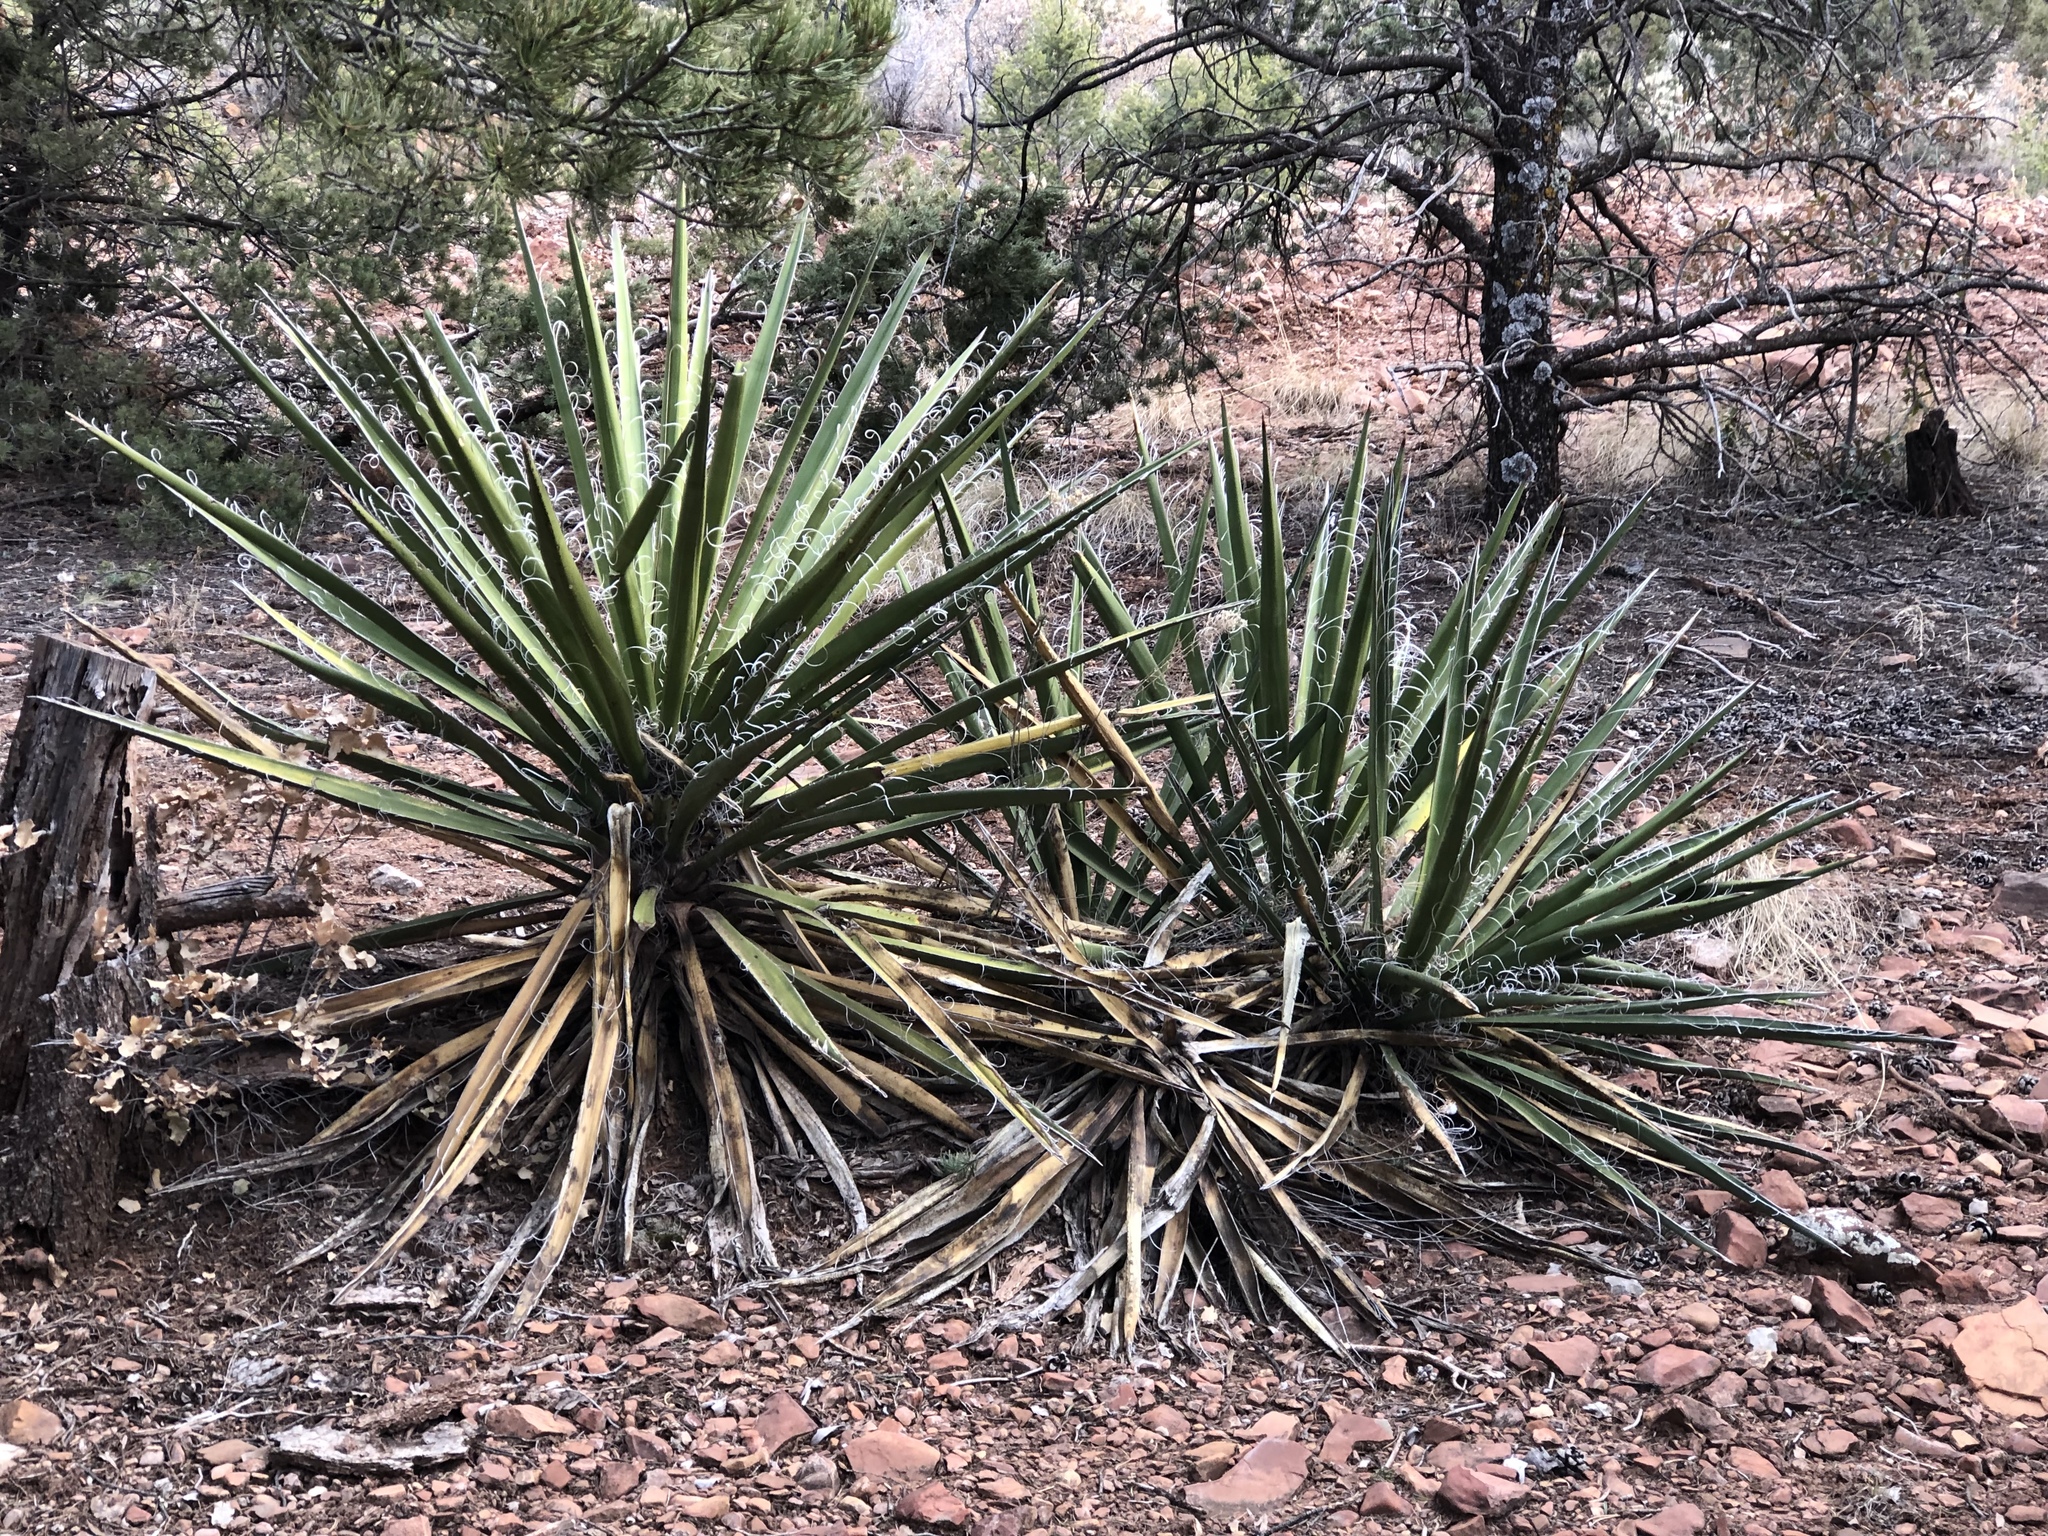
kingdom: Plantae
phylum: Tracheophyta
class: Liliopsida
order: Asparagales
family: Asparagaceae
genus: Yucca
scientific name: Yucca baccata
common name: Banana yucca
